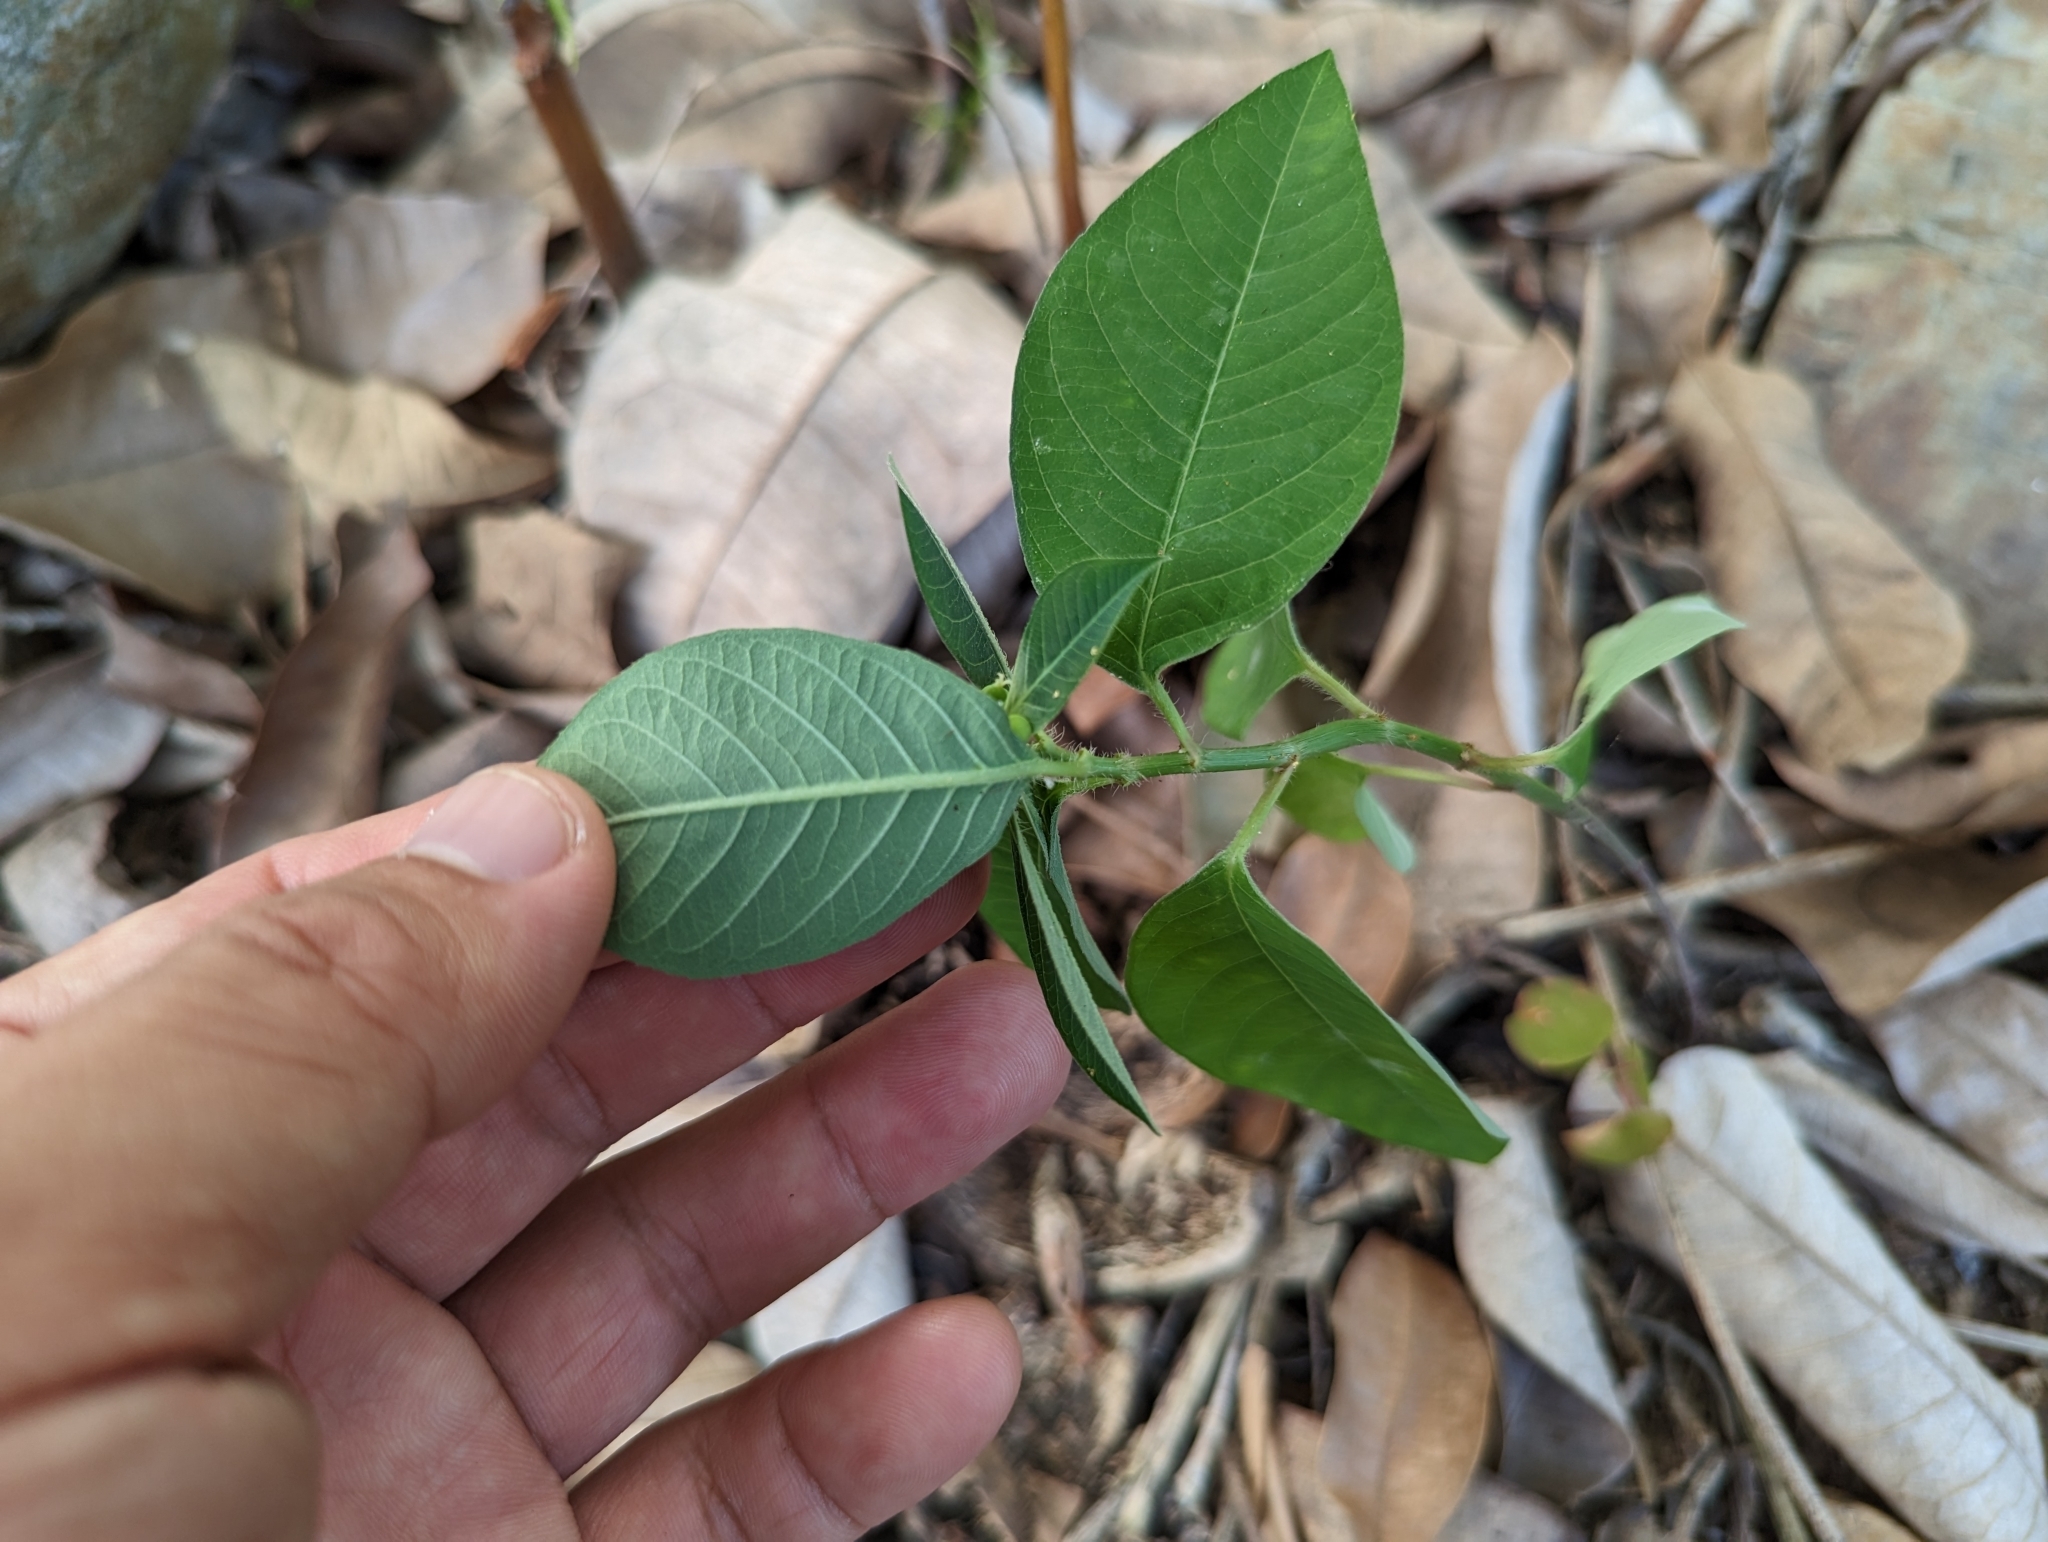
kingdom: Plantae
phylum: Tracheophyta
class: Magnoliopsida
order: Malpighiales
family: Euphorbiaceae
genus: Euphorbia
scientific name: Euphorbia heterophylla
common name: Mexican fireplant
